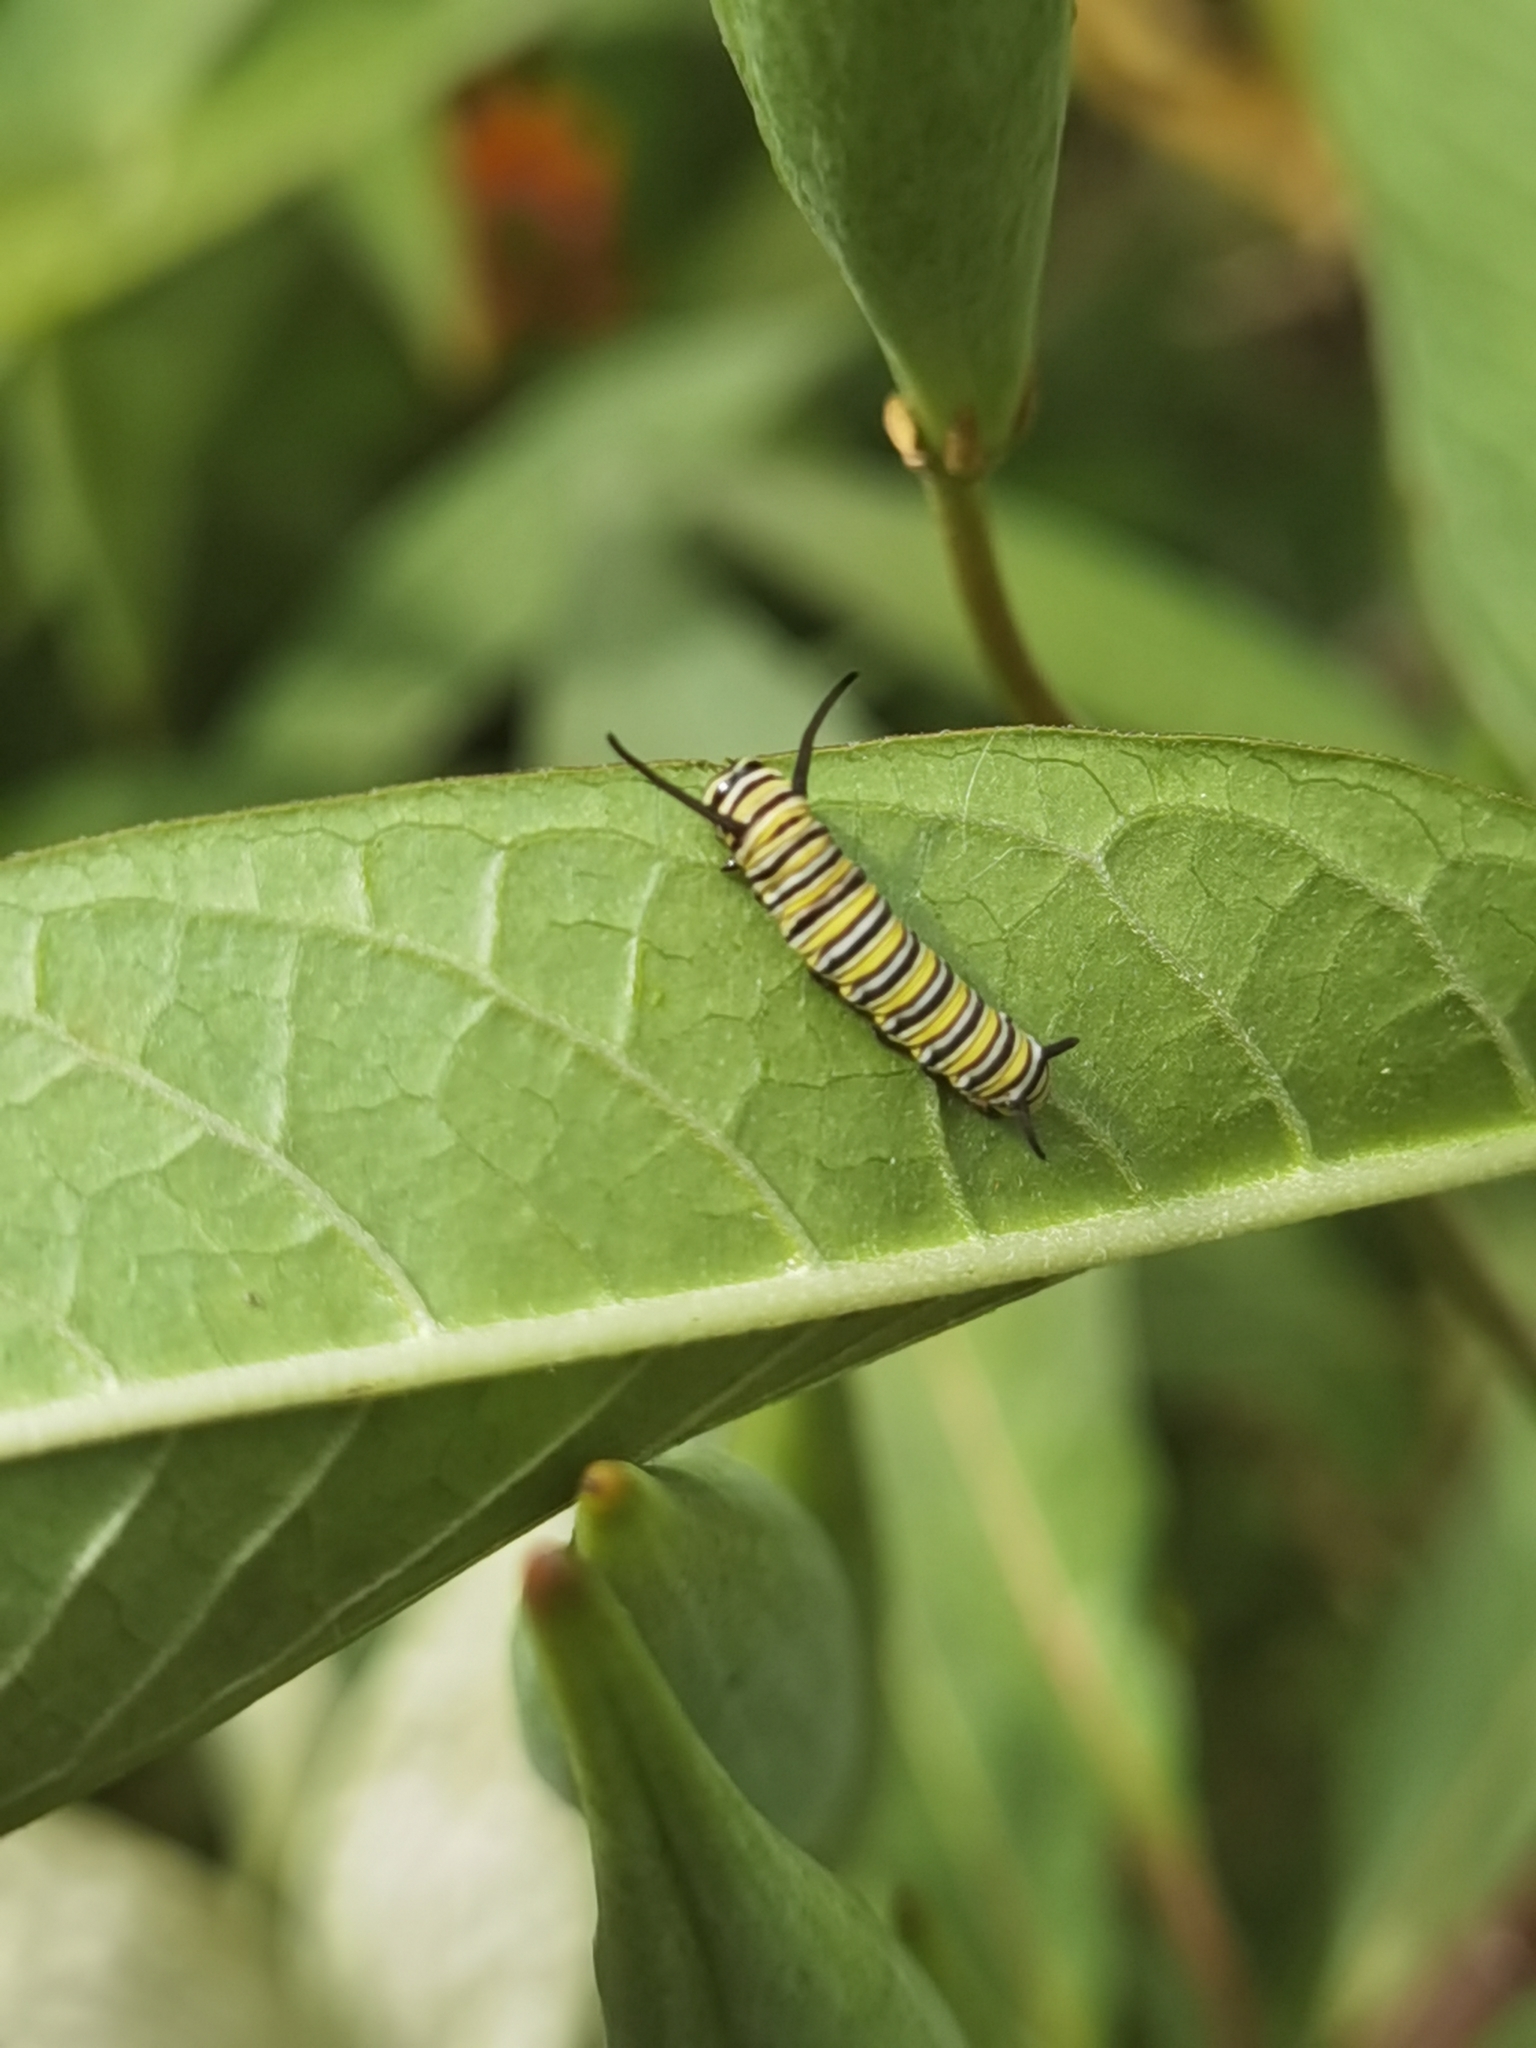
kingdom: Animalia
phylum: Arthropoda
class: Insecta
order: Lepidoptera
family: Nymphalidae
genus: Danaus
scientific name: Danaus plexippus
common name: Monarch
